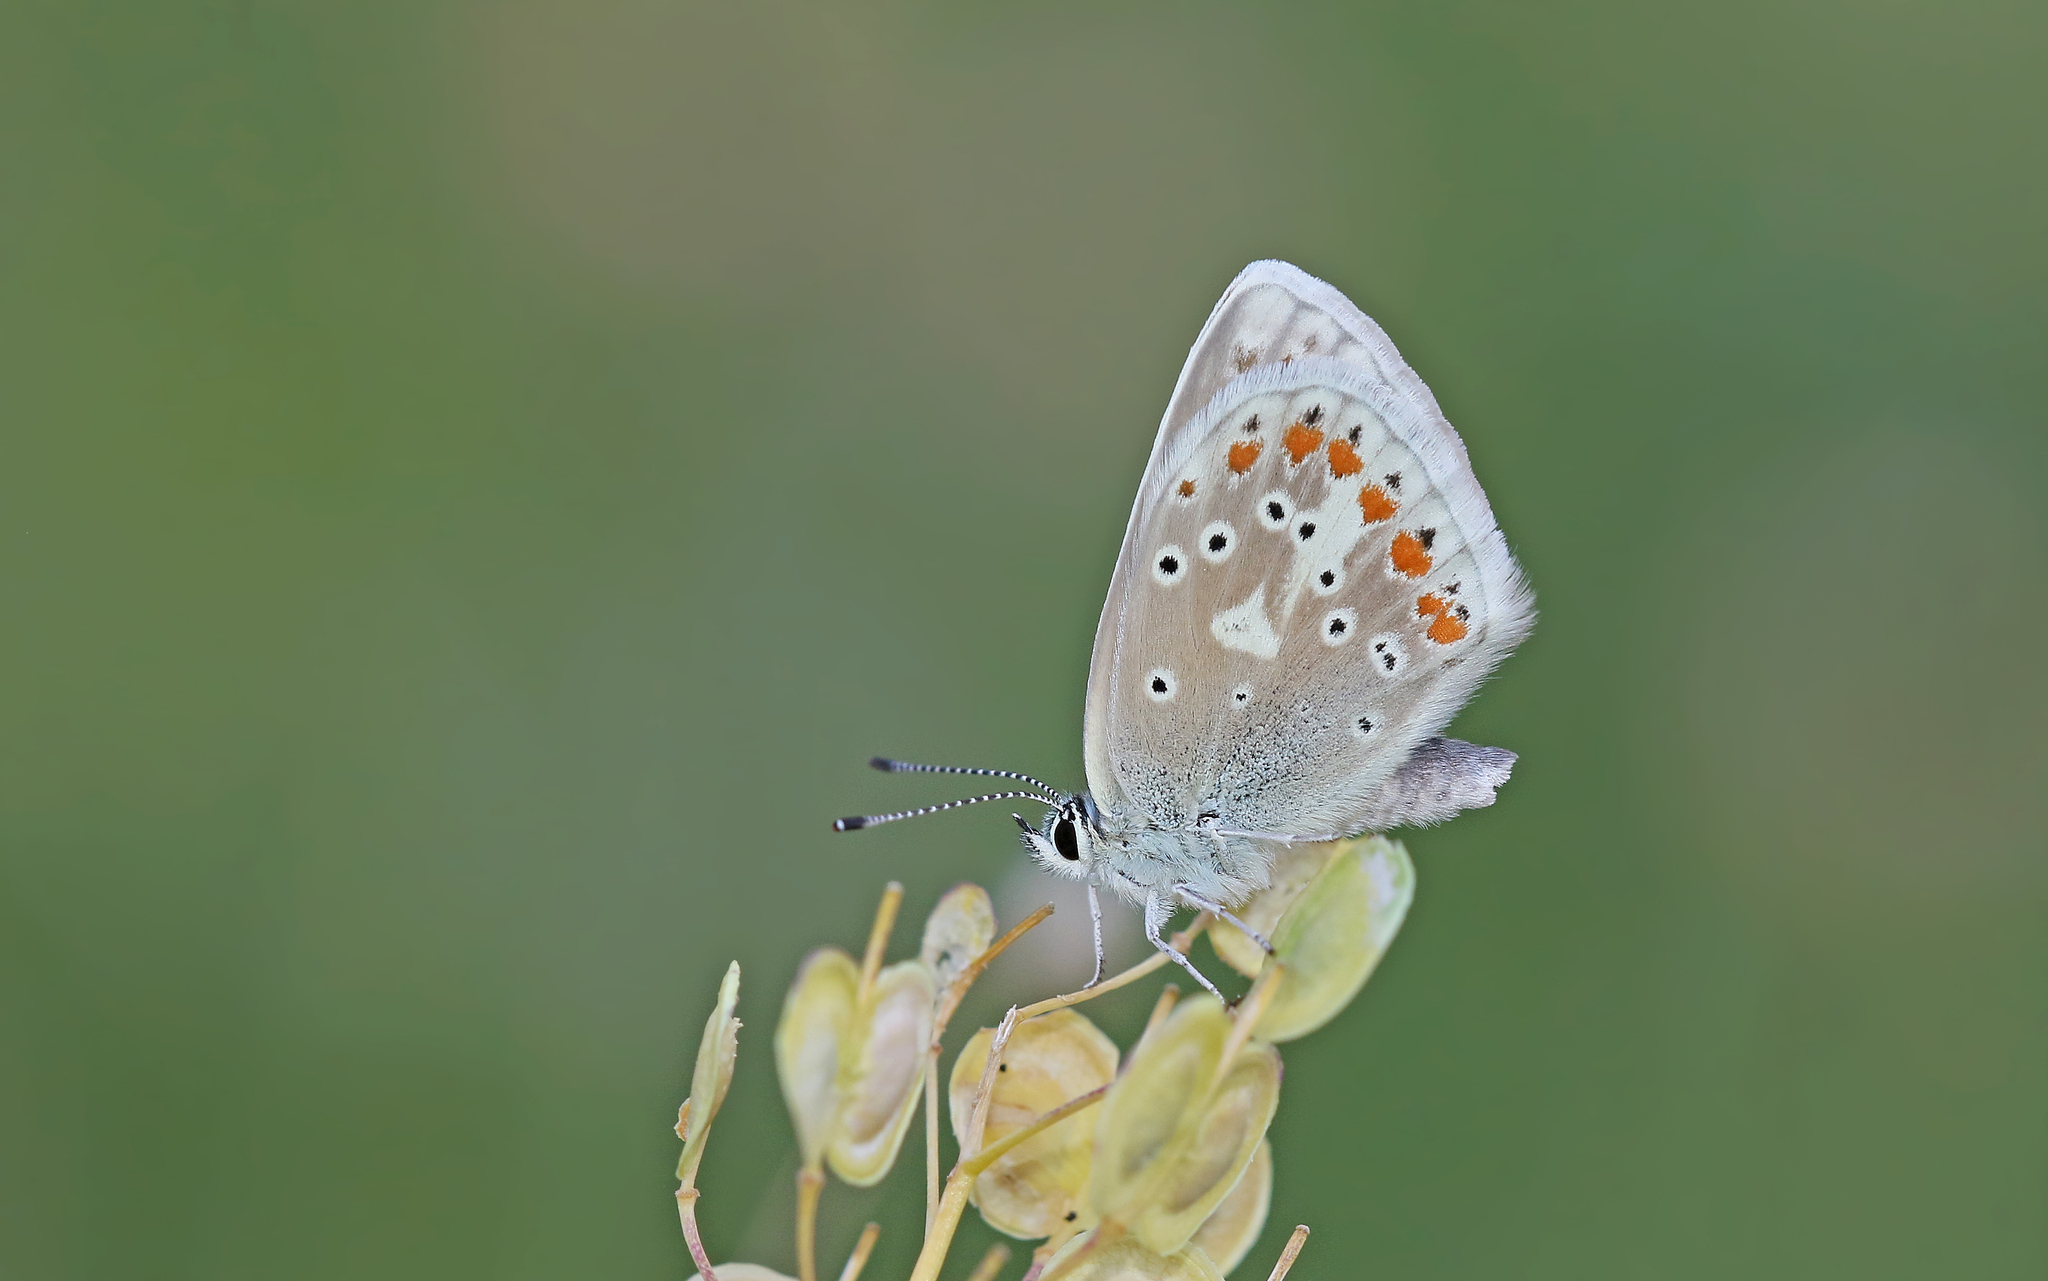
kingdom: Animalia
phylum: Arthropoda
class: Insecta
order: Lepidoptera
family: Lycaenidae
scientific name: Lycaenidae
